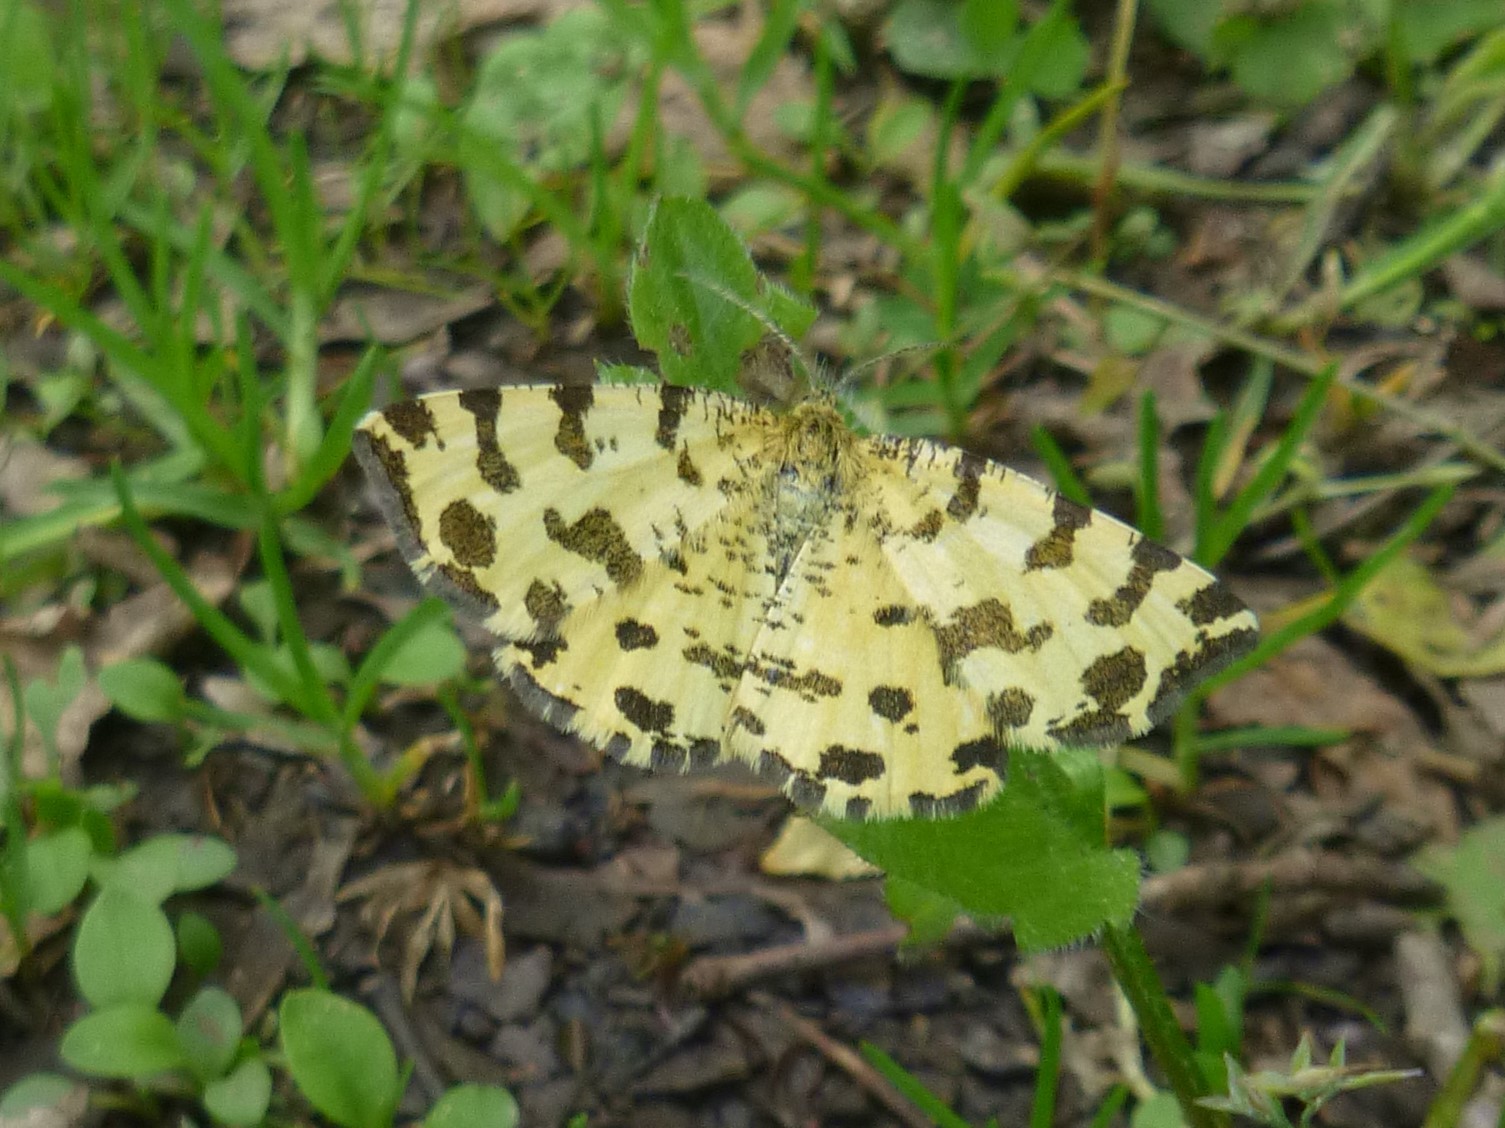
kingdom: Animalia
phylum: Arthropoda
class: Insecta
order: Lepidoptera
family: Geometridae
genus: Pseudopanthera
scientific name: Pseudopanthera macularia
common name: Speckled yellow
